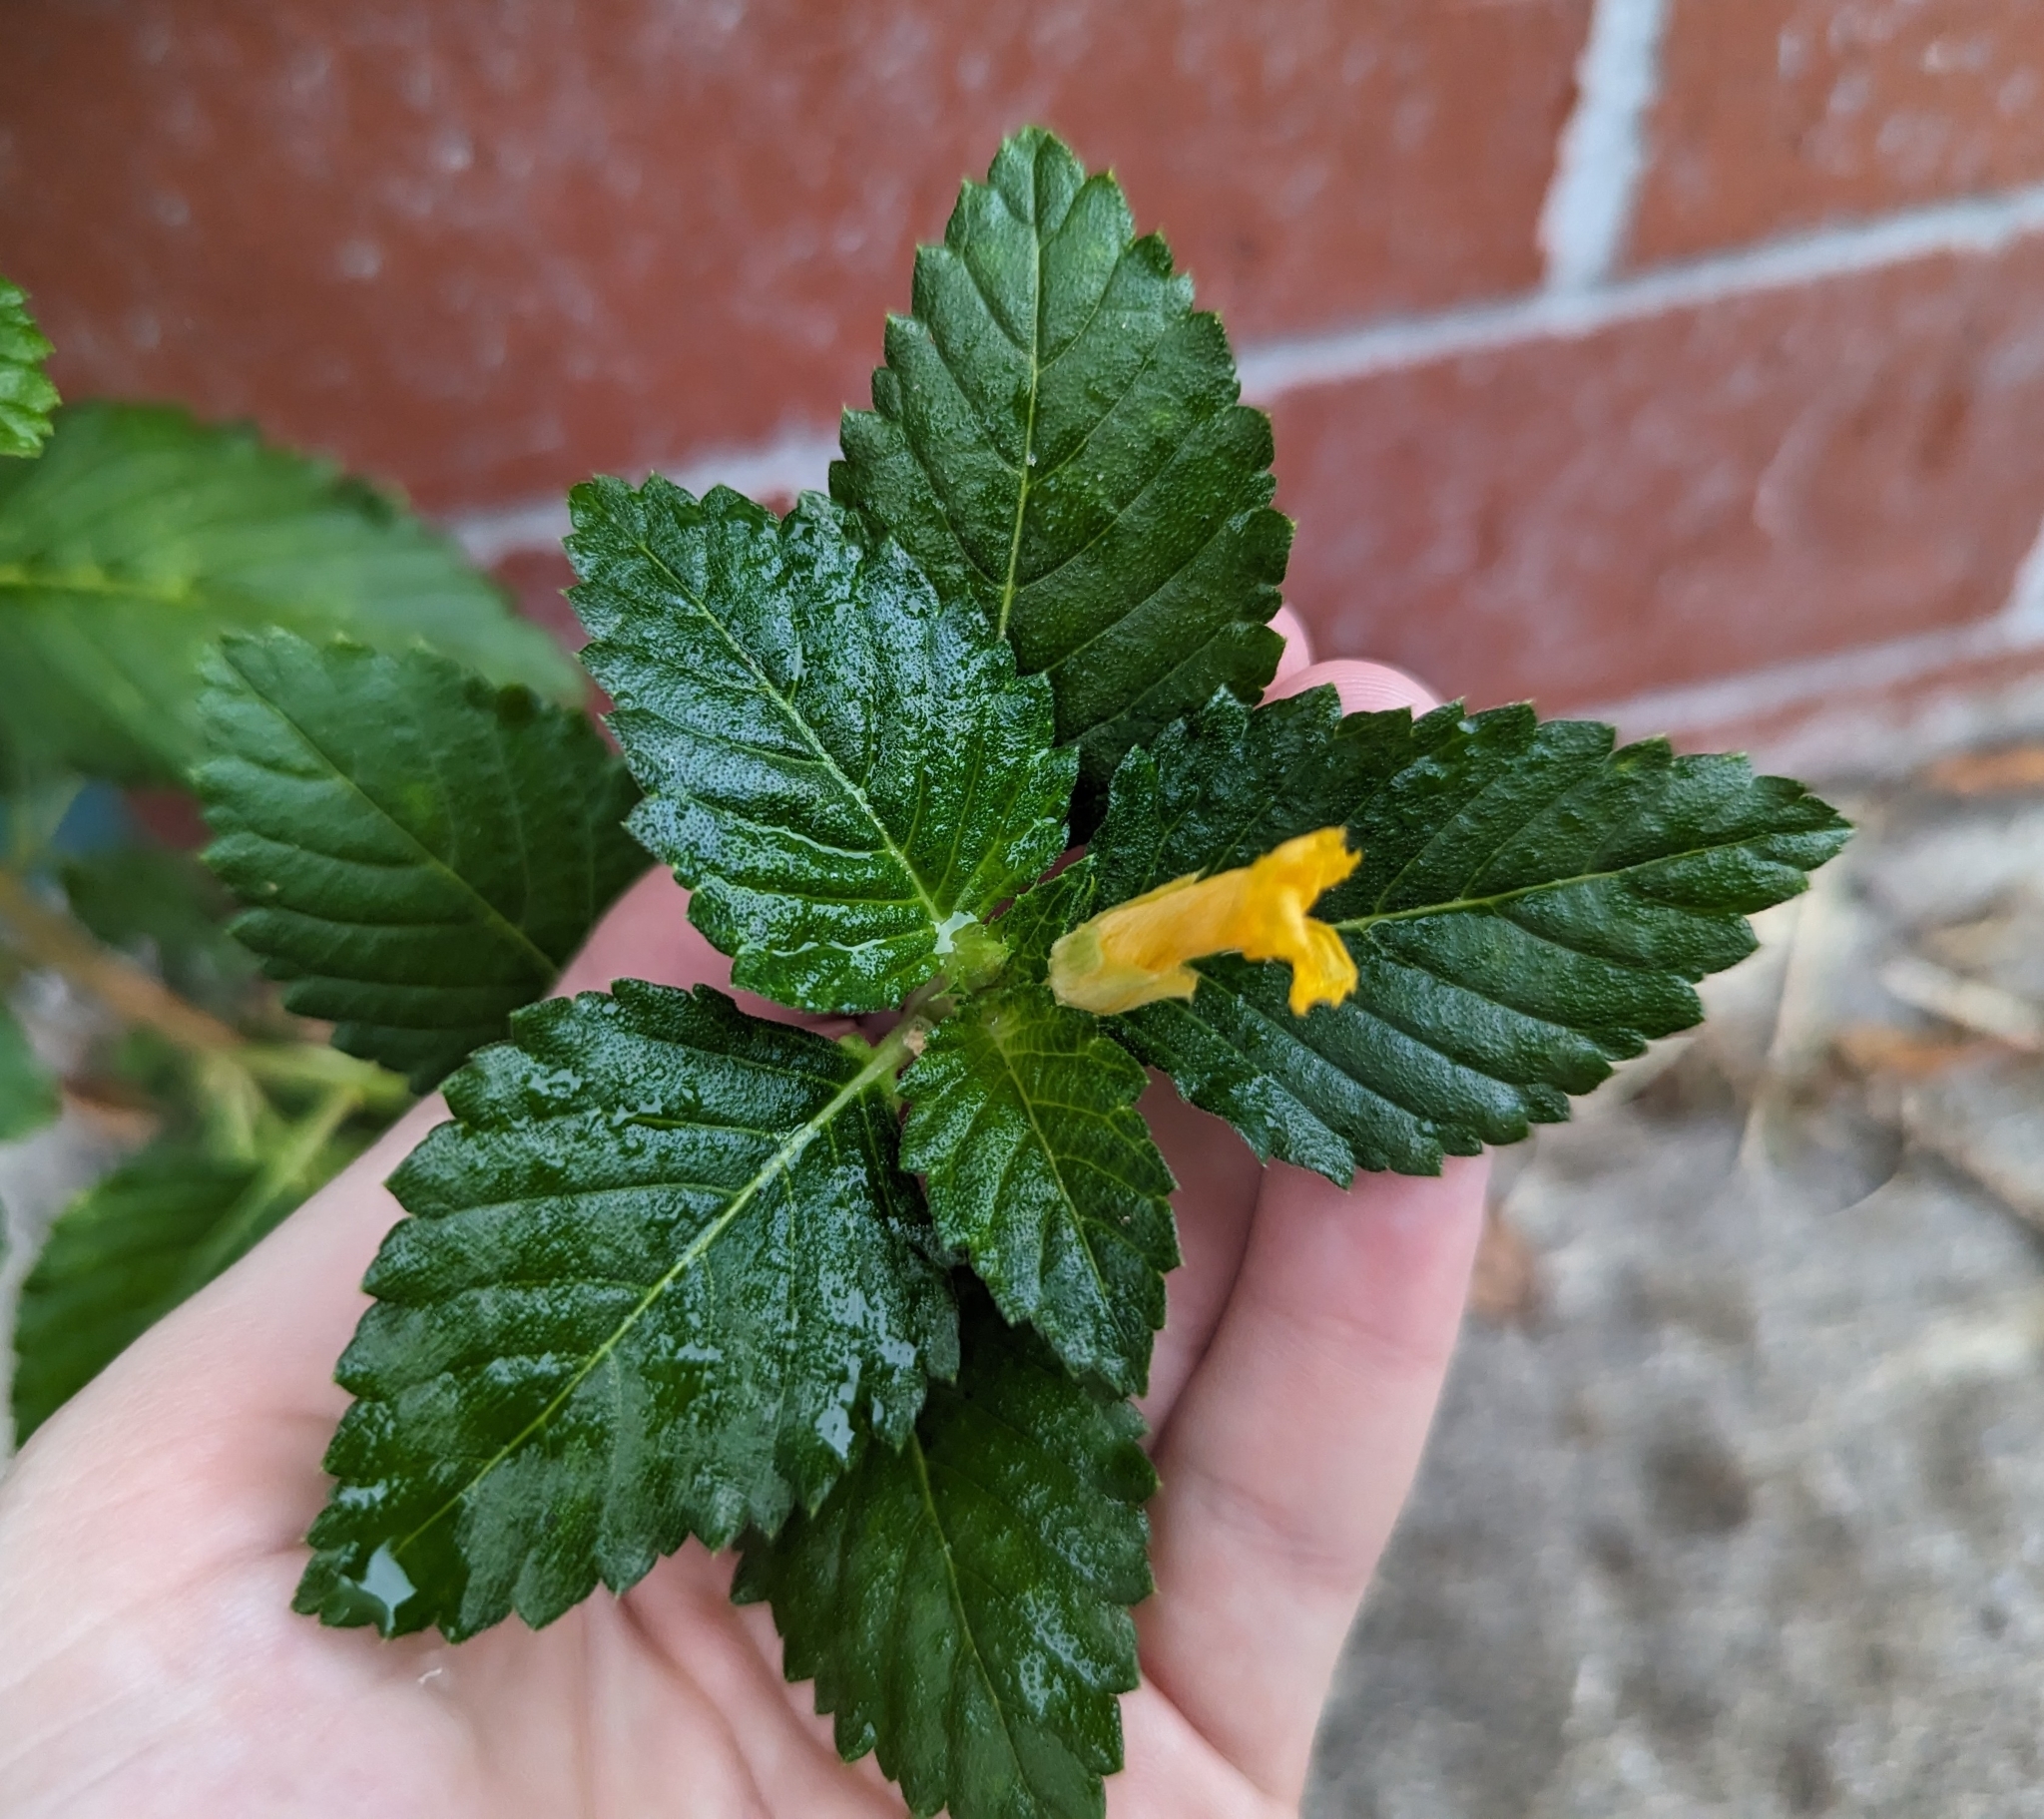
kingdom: Plantae
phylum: Tracheophyta
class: Magnoliopsida
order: Malpighiales
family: Turneraceae
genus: Turnera
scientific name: Turnera ulmifolia
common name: Ramgoat dashalong
